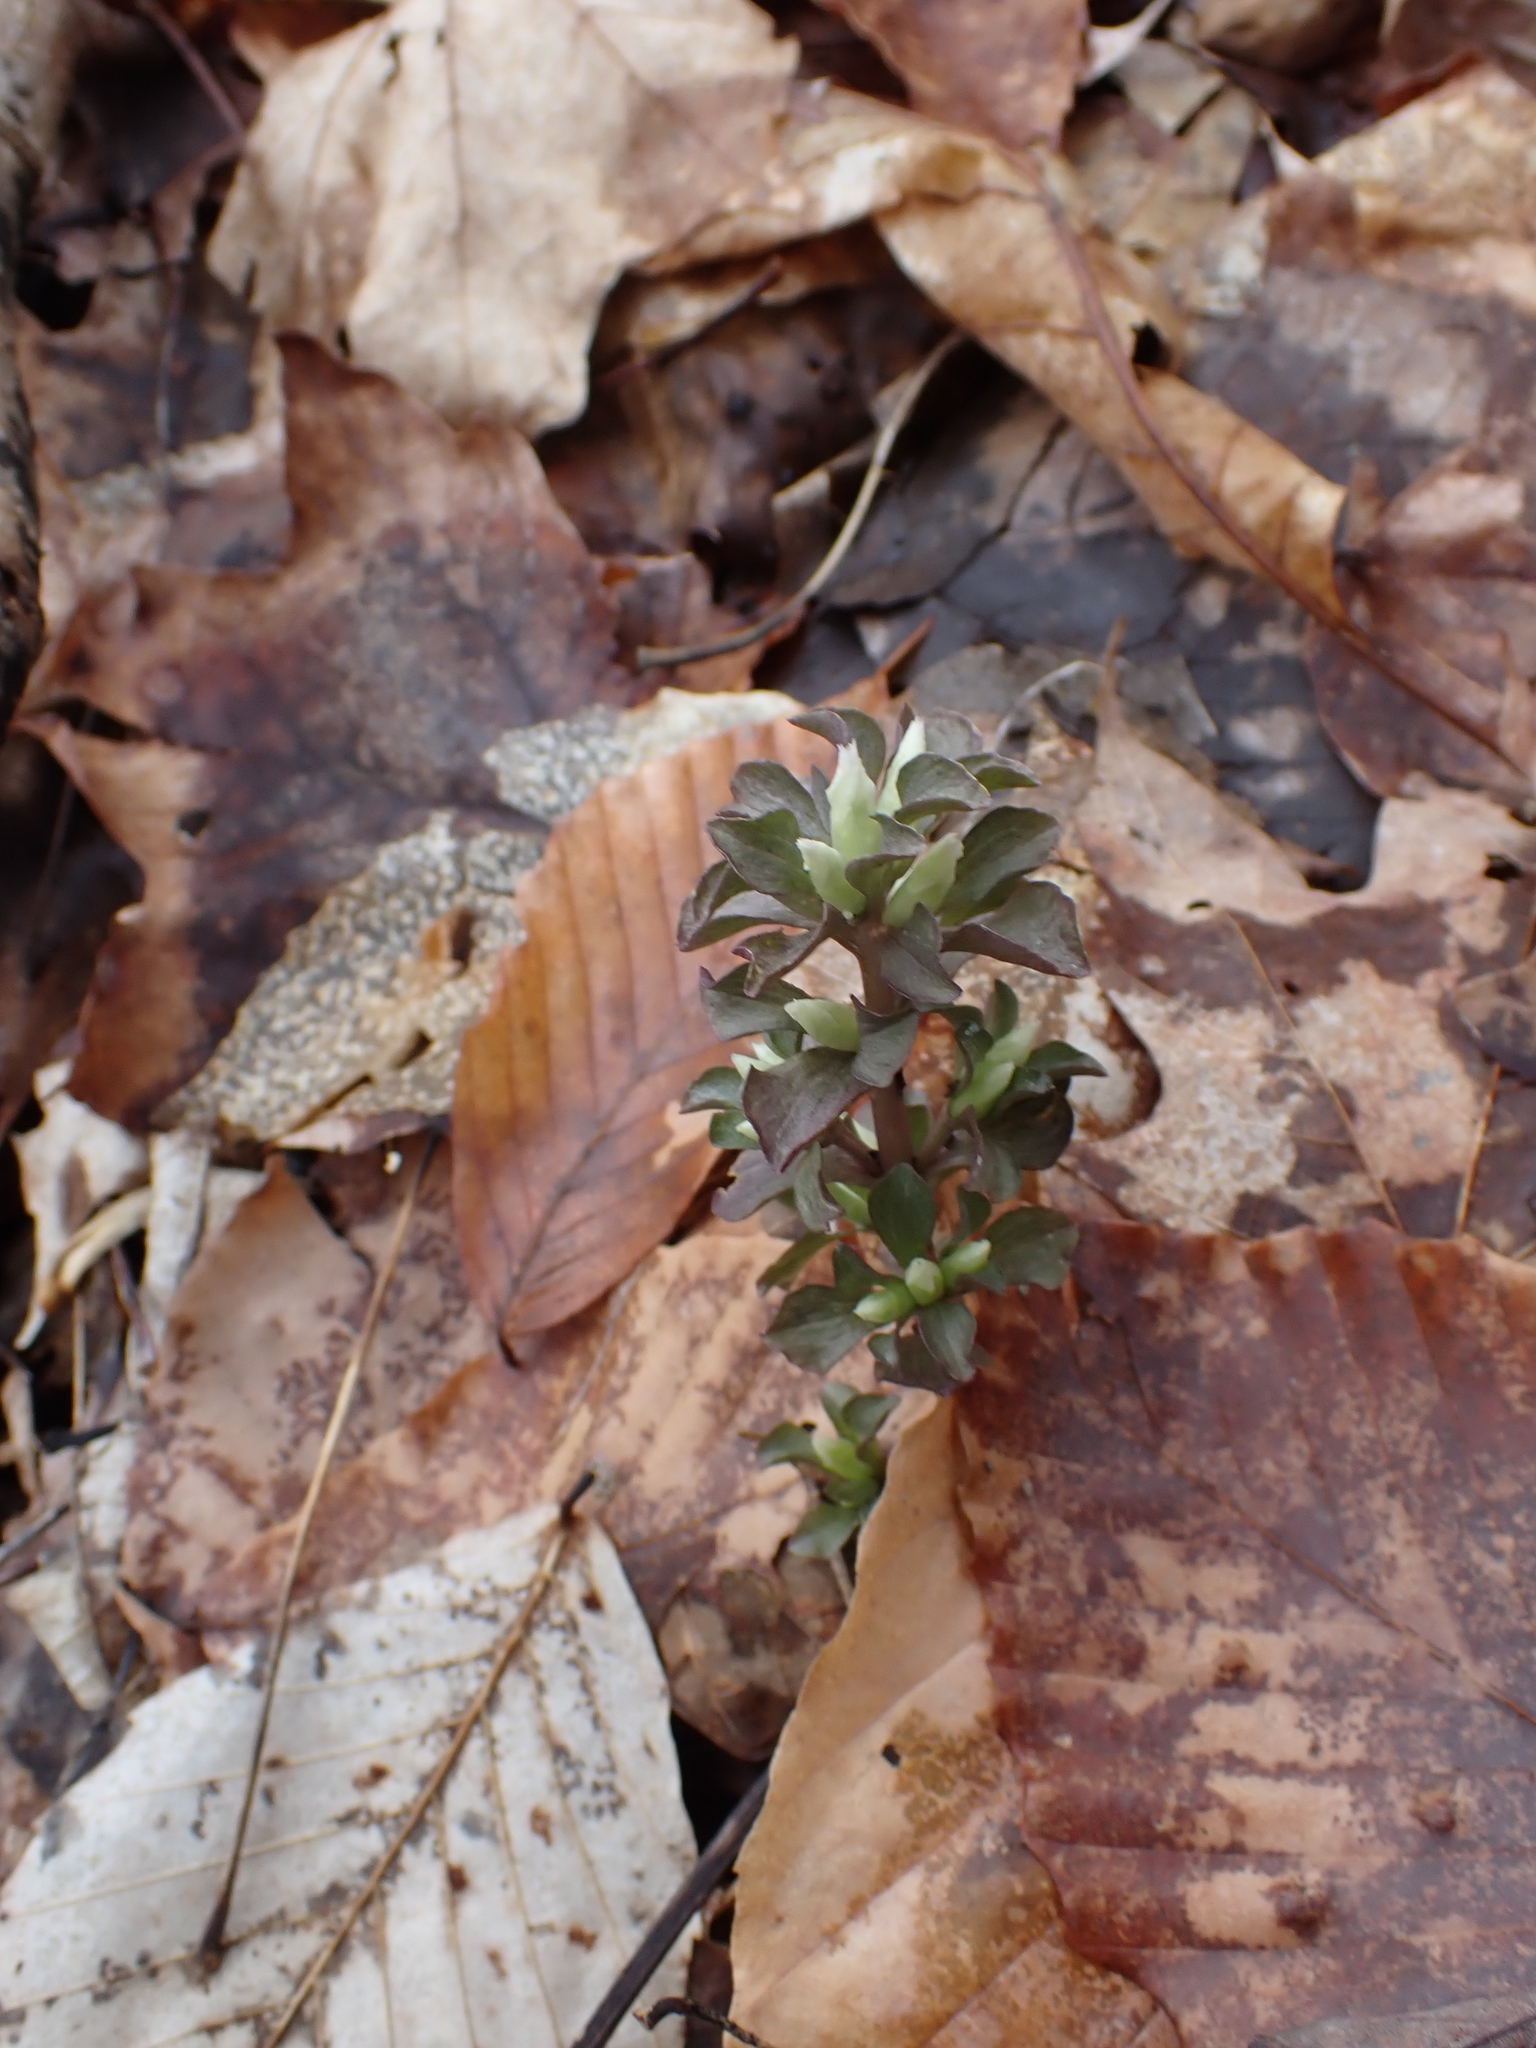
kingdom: Plantae
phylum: Tracheophyta
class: Magnoliopsida
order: Gentianales
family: Gentianaceae
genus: Obolaria
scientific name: Obolaria virginica
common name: Pennywort
